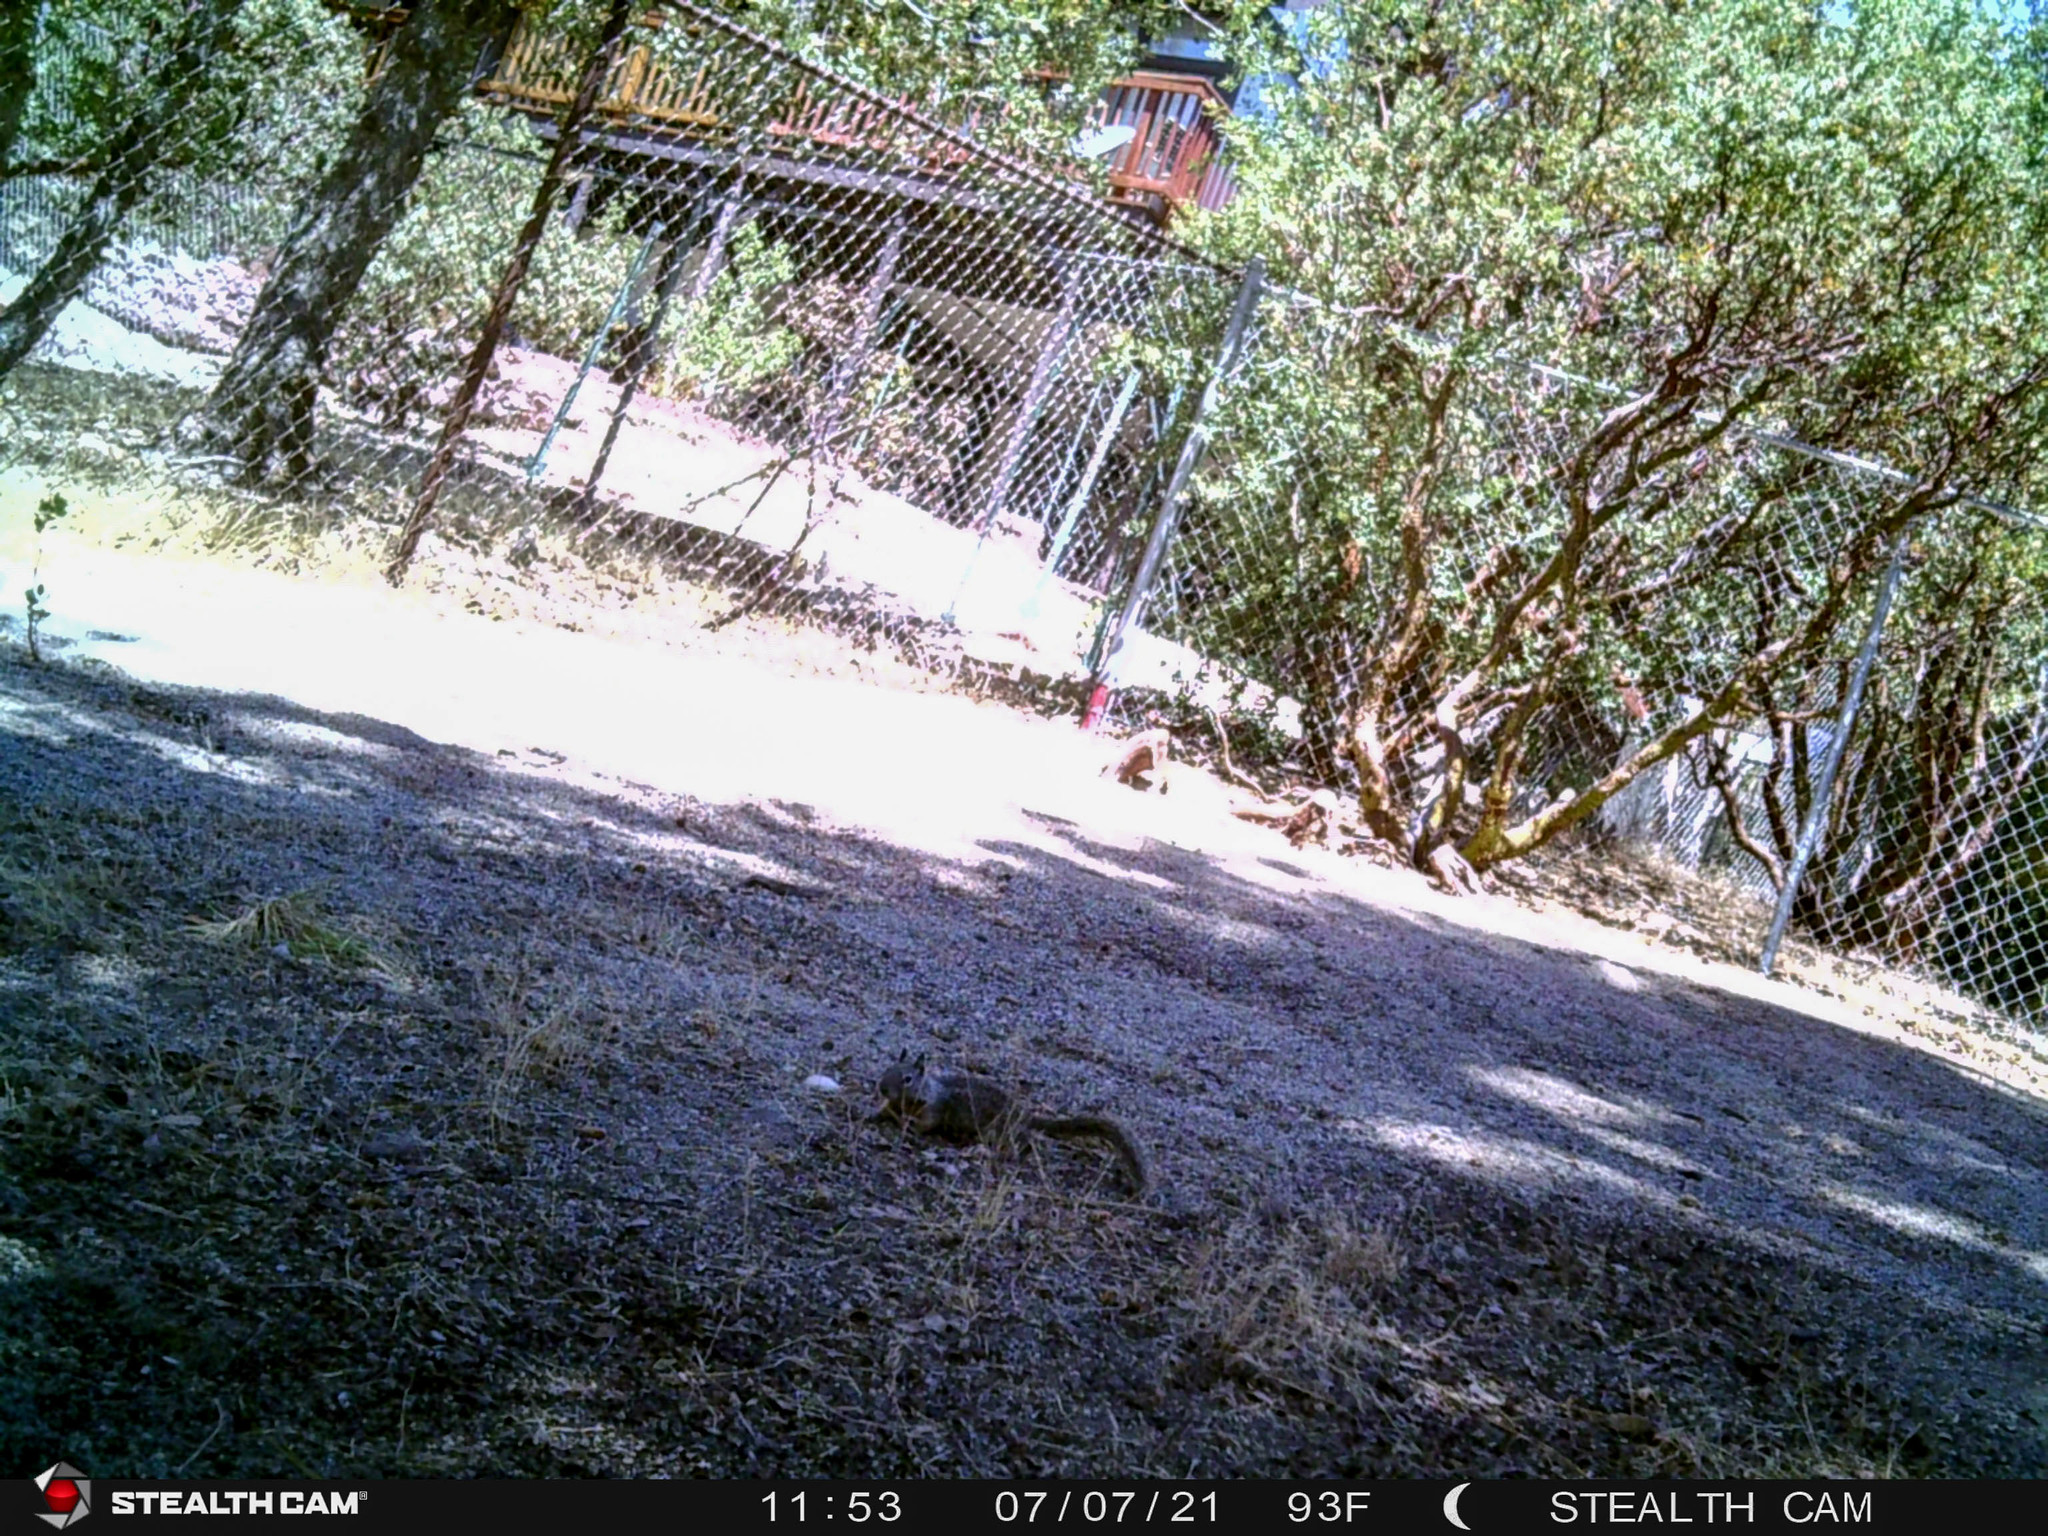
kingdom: Animalia
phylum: Chordata
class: Mammalia
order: Rodentia
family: Sciuridae
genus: Otospermophilus
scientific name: Otospermophilus beecheyi
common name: California ground squirrel
